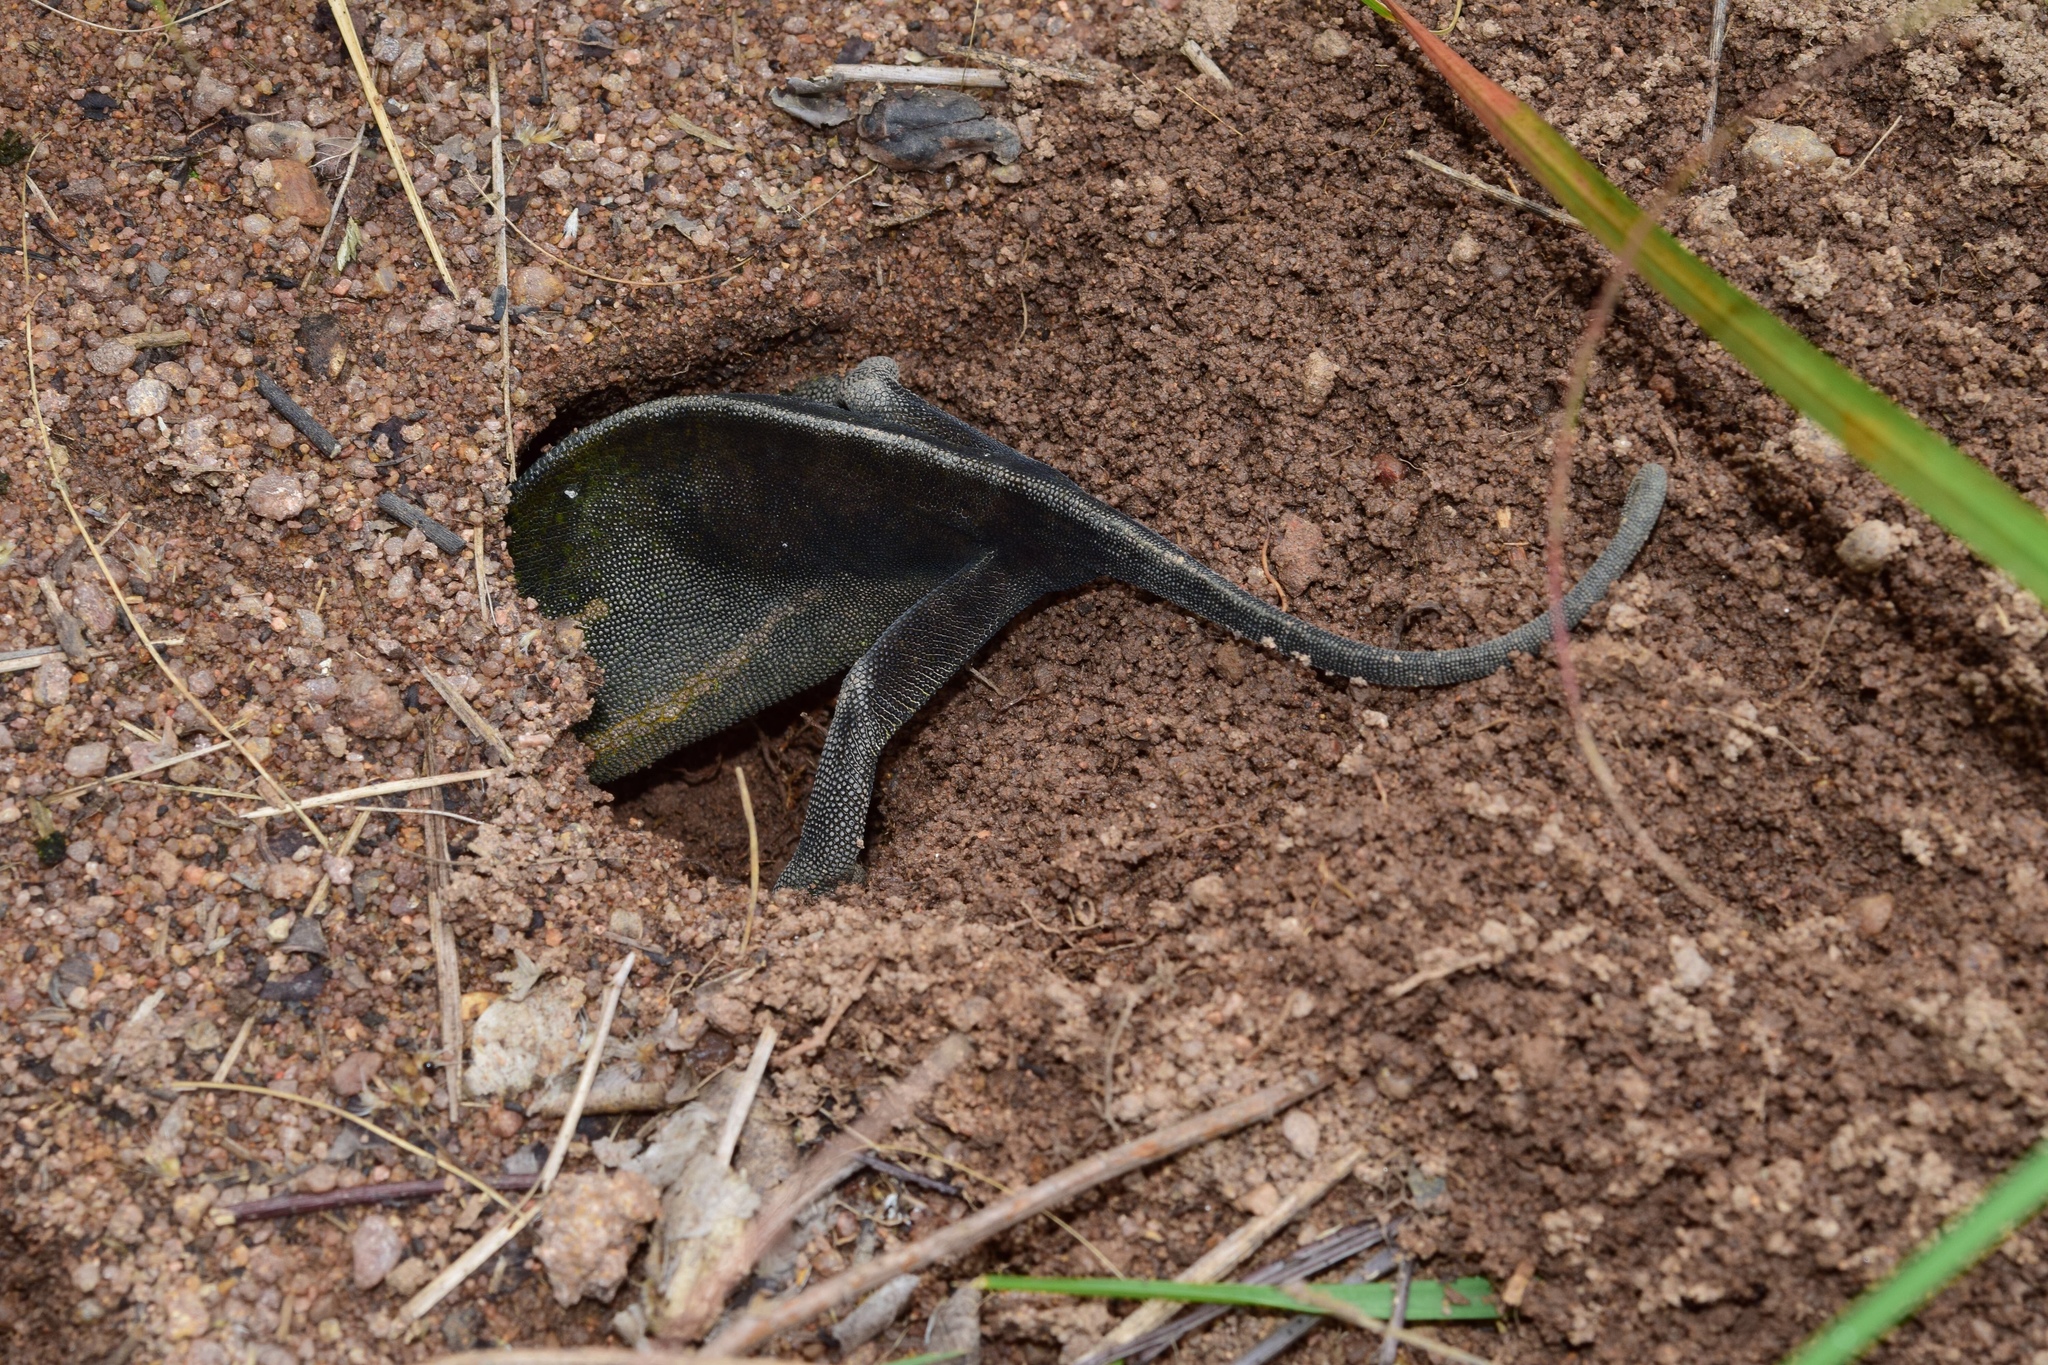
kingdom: Animalia
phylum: Chordata
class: Squamata
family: Chamaeleonidae
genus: Chamaeleo
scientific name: Chamaeleo dilepis
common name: Flapneck chameleon
